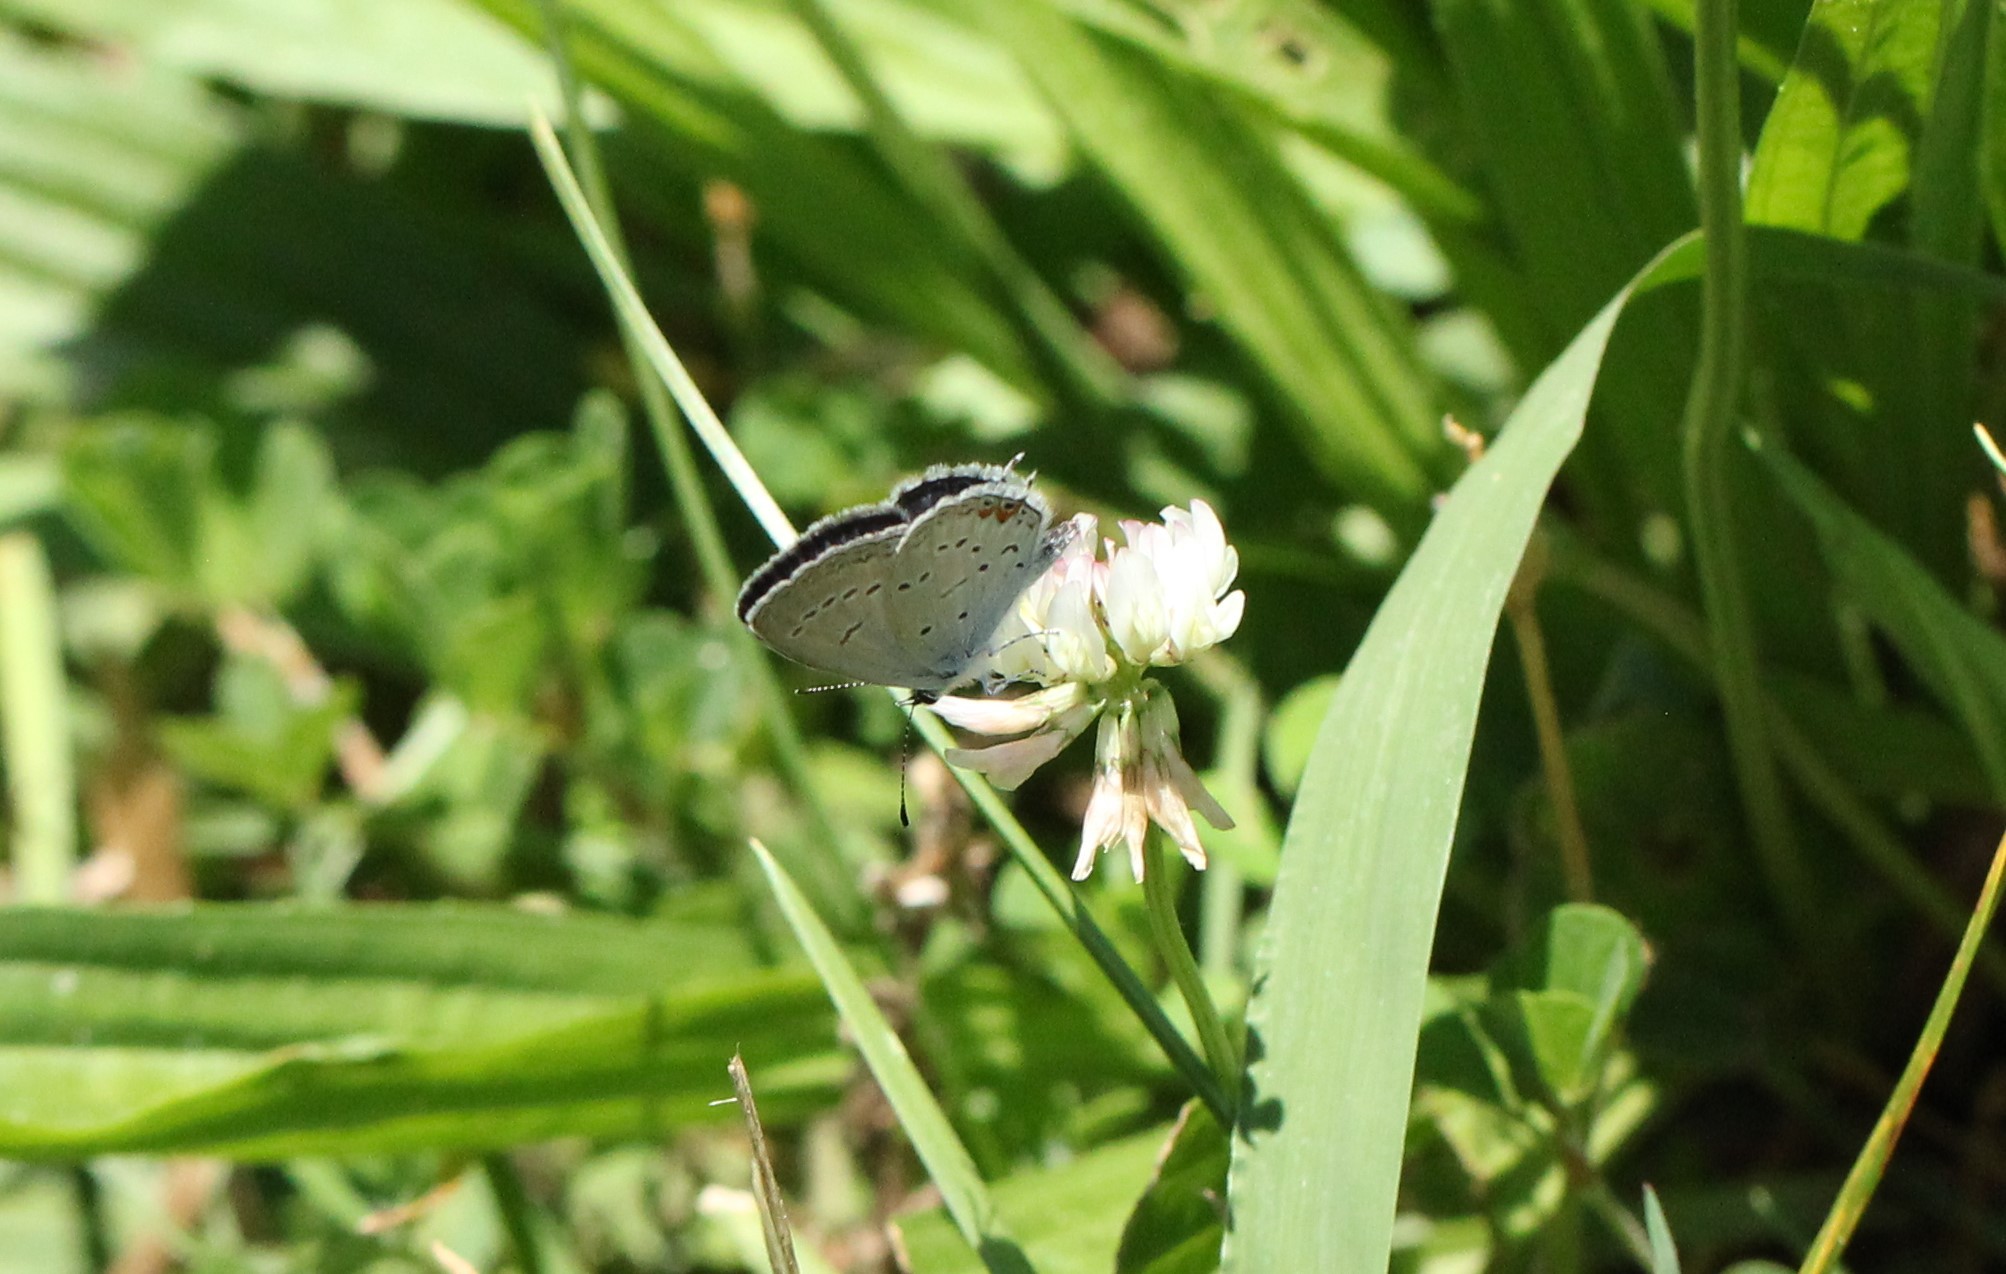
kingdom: Animalia
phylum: Arthropoda
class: Insecta
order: Lepidoptera
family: Lycaenidae
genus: Elkalyce
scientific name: Elkalyce comyntas
